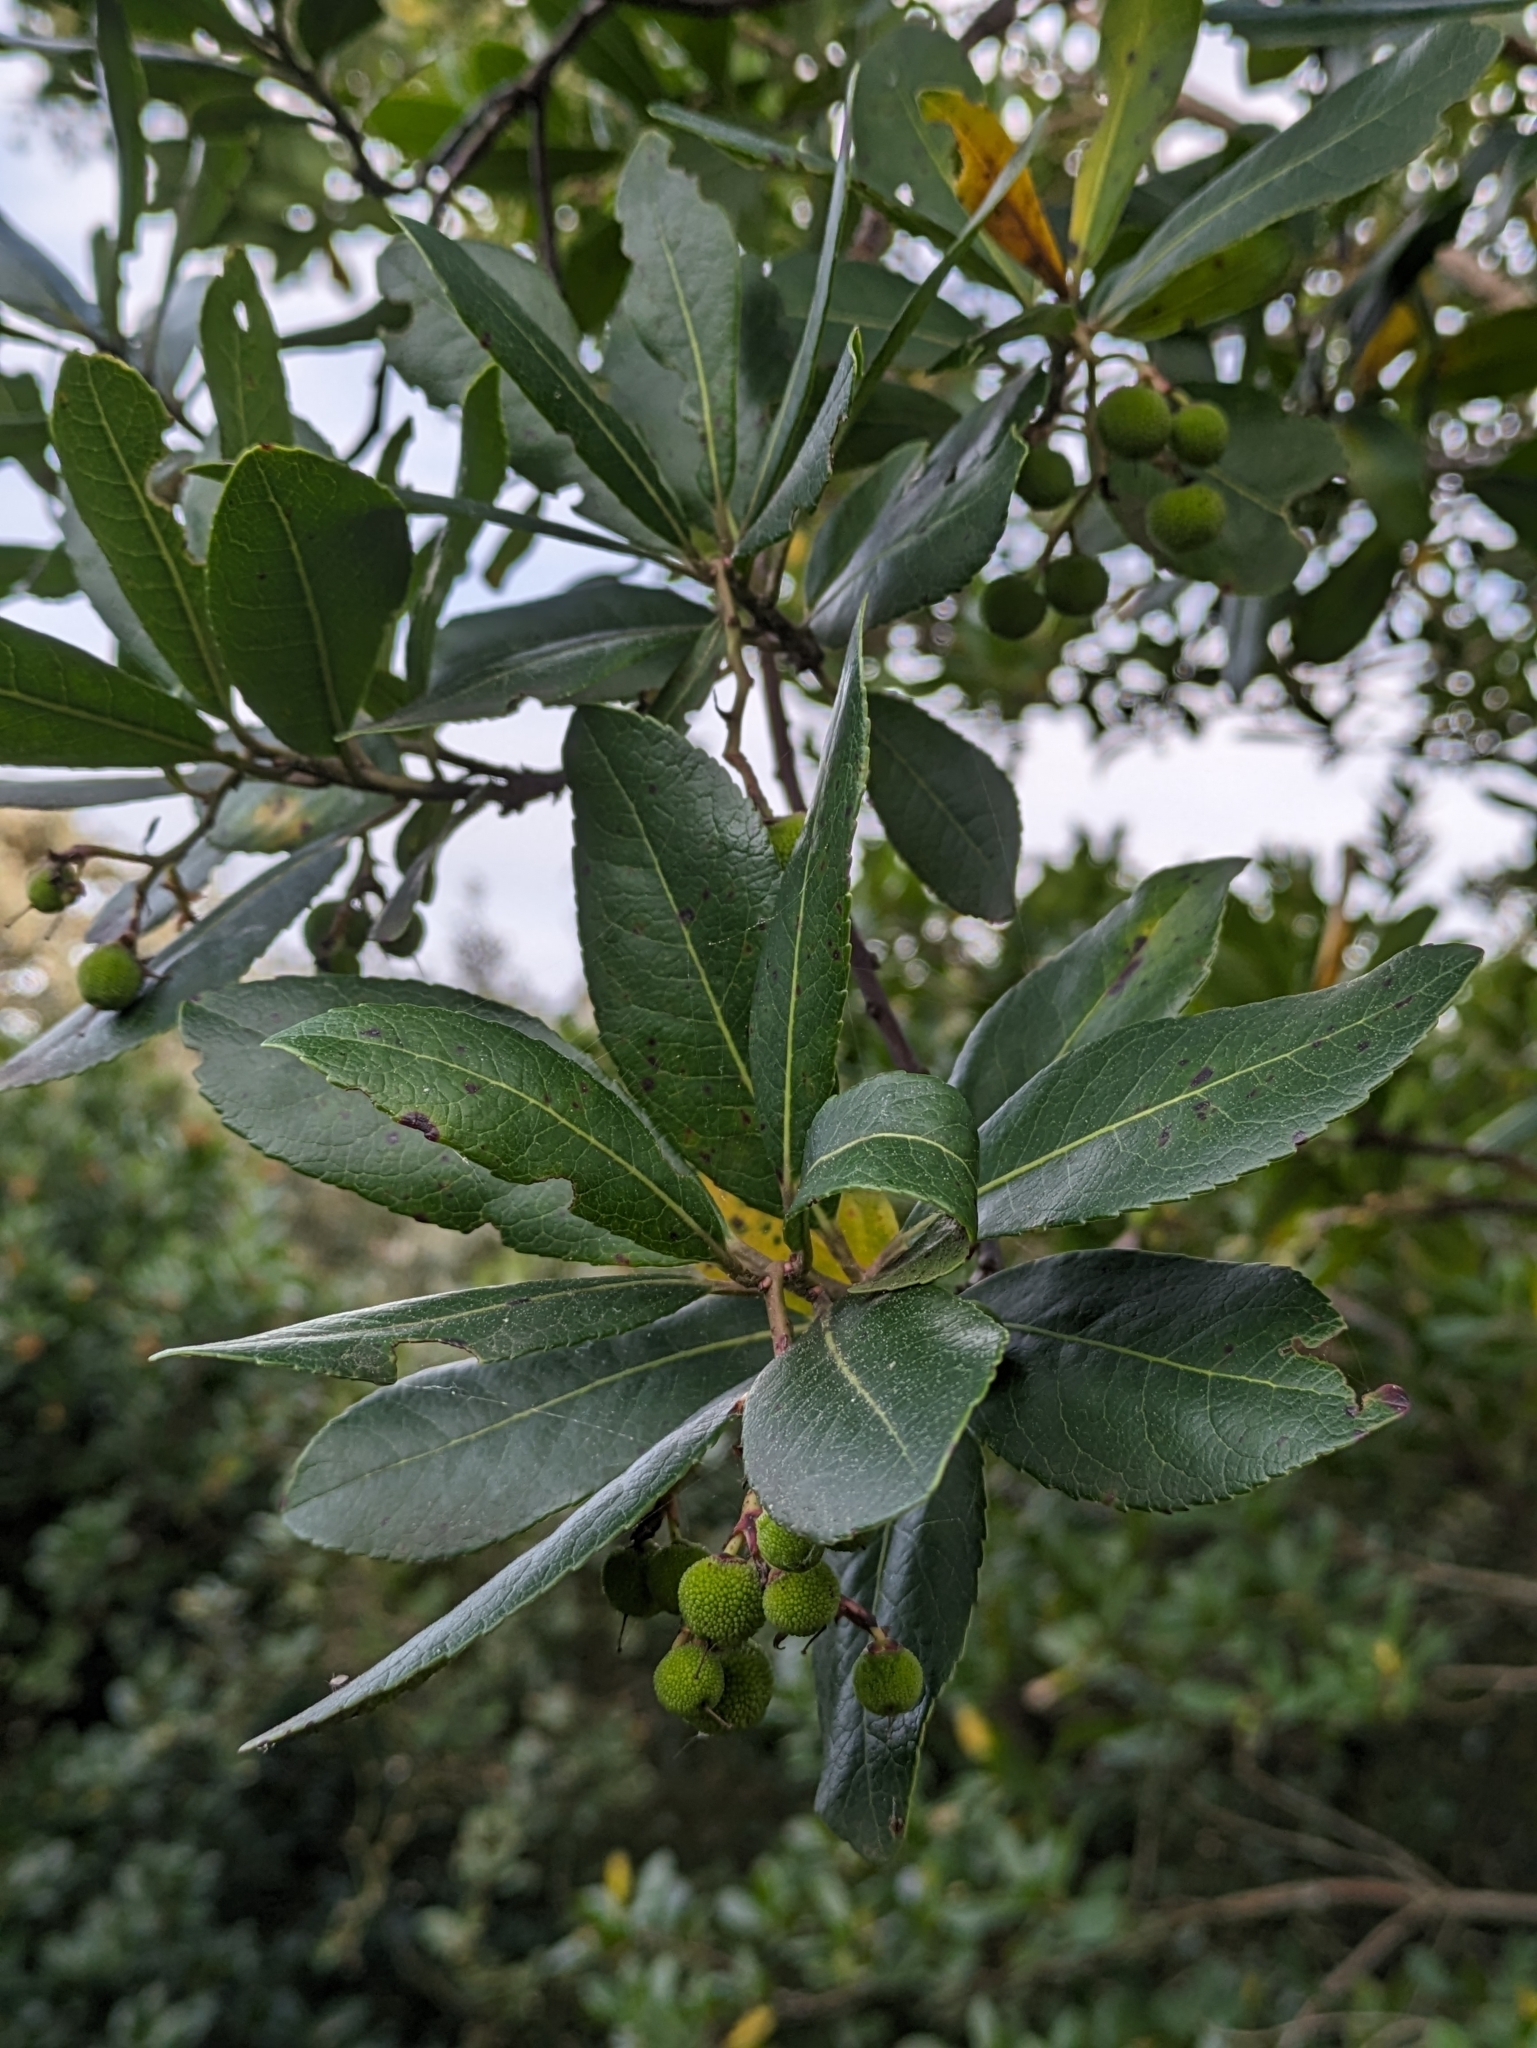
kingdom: Plantae
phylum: Tracheophyta
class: Magnoliopsida
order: Ericales
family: Ericaceae
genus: Arbutus
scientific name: Arbutus unedo
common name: Strawberry-tree
